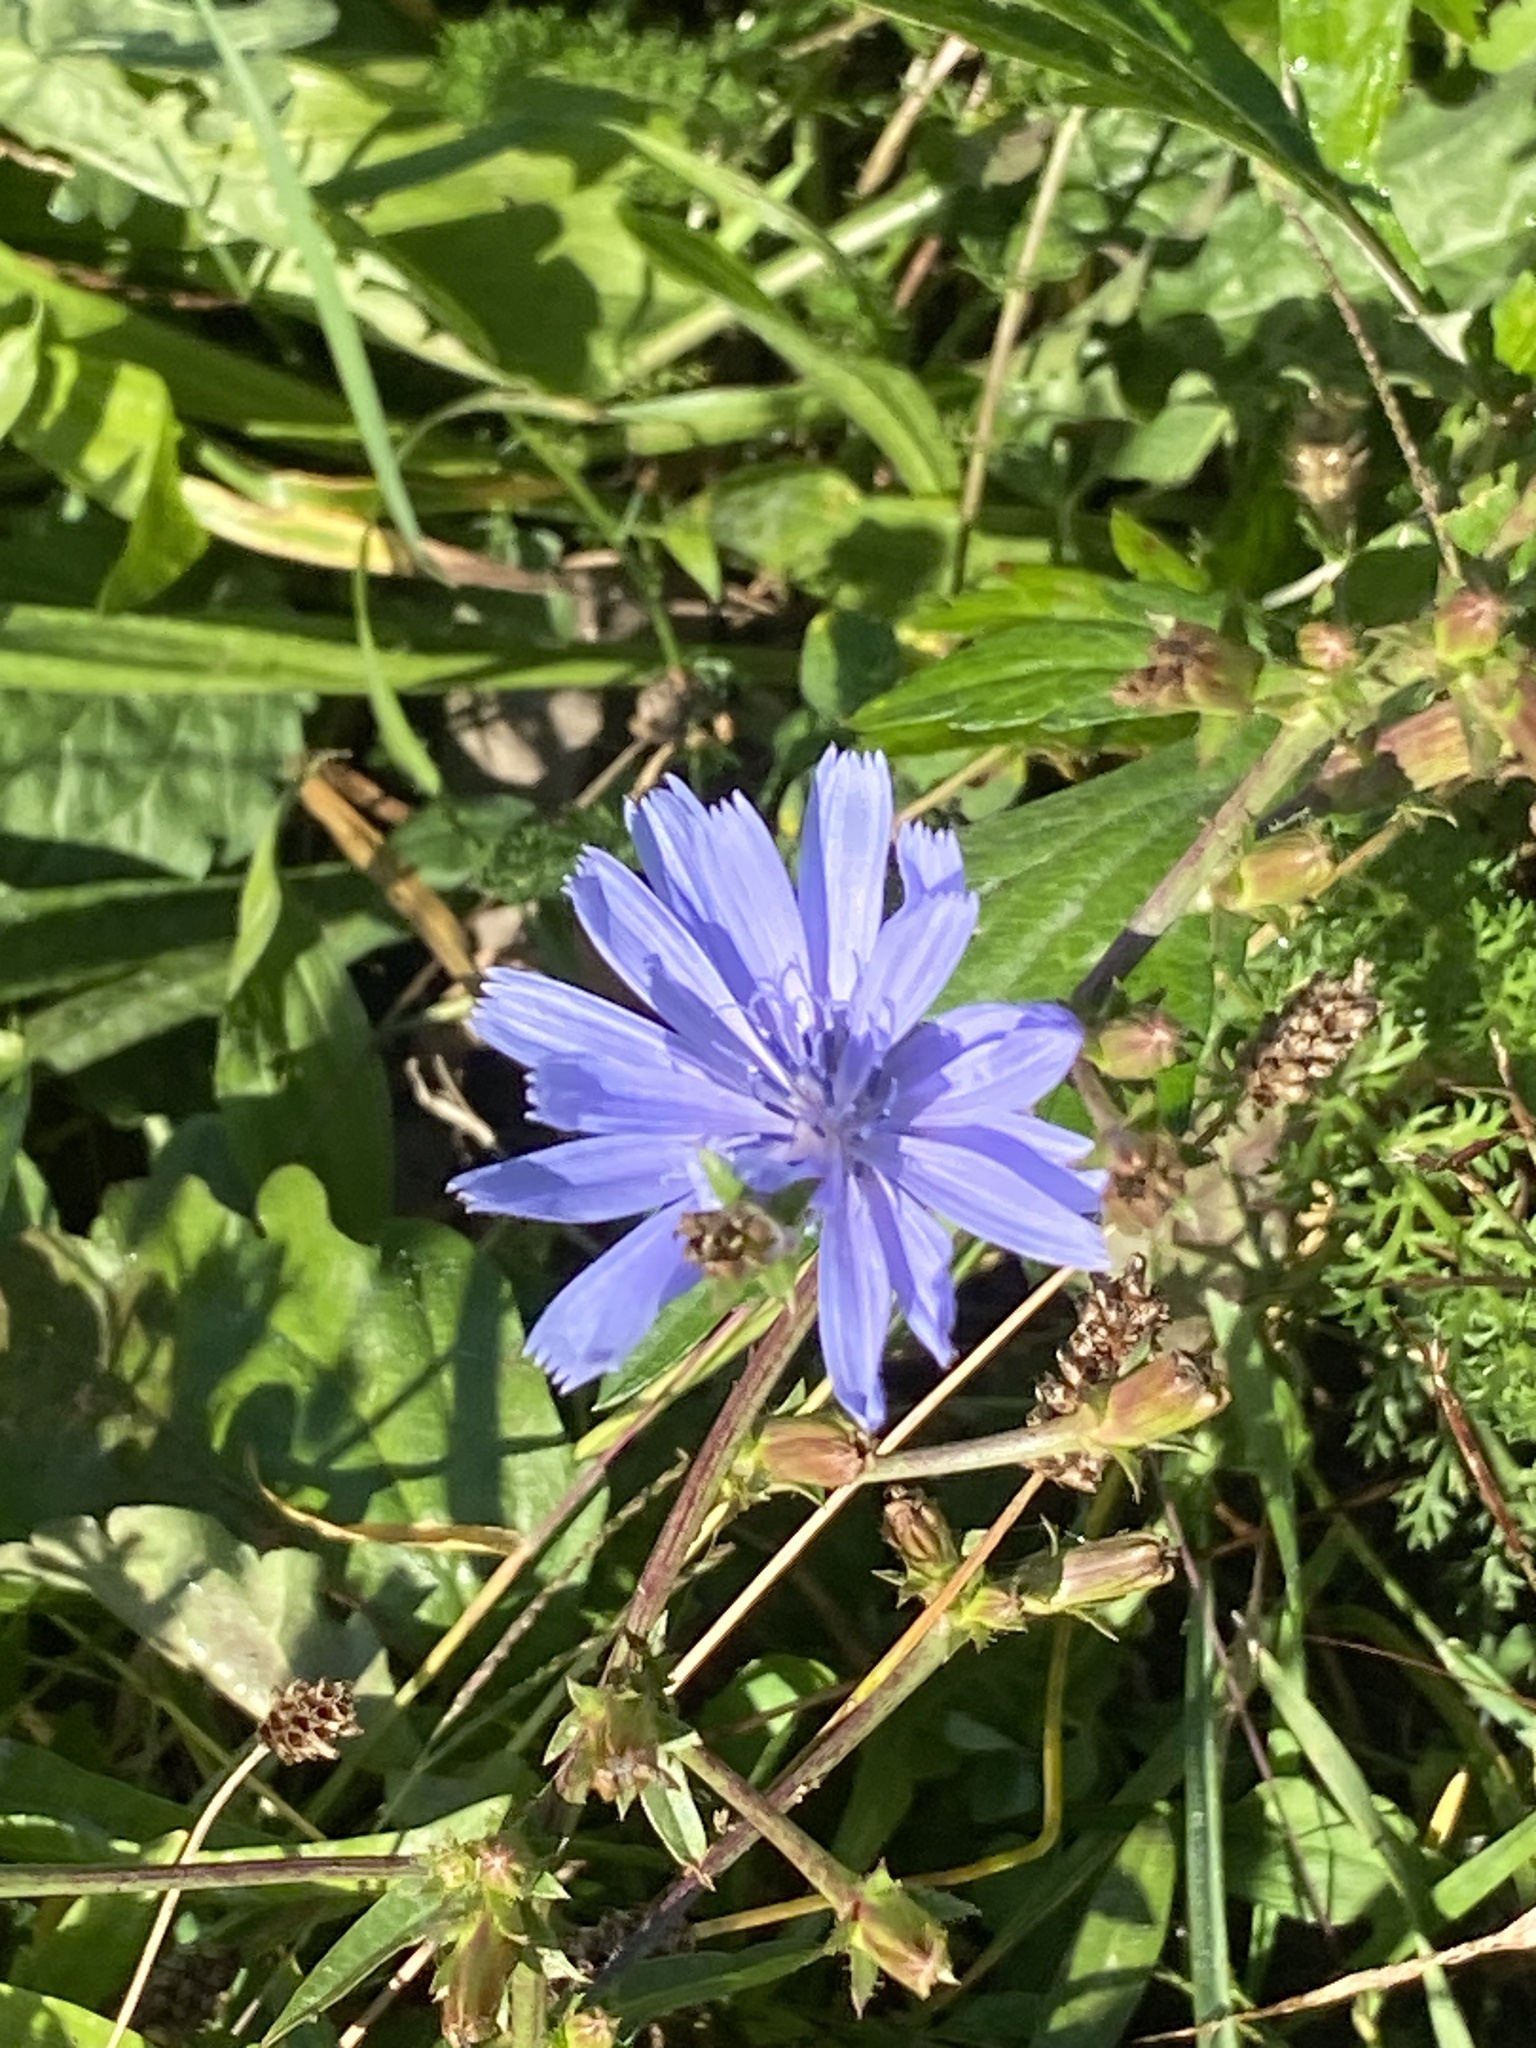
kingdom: Plantae
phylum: Tracheophyta
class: Magnoliopsida
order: Asterales
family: Asteraceae
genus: Cichorium
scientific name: Cichorium intybus
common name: Chicory
